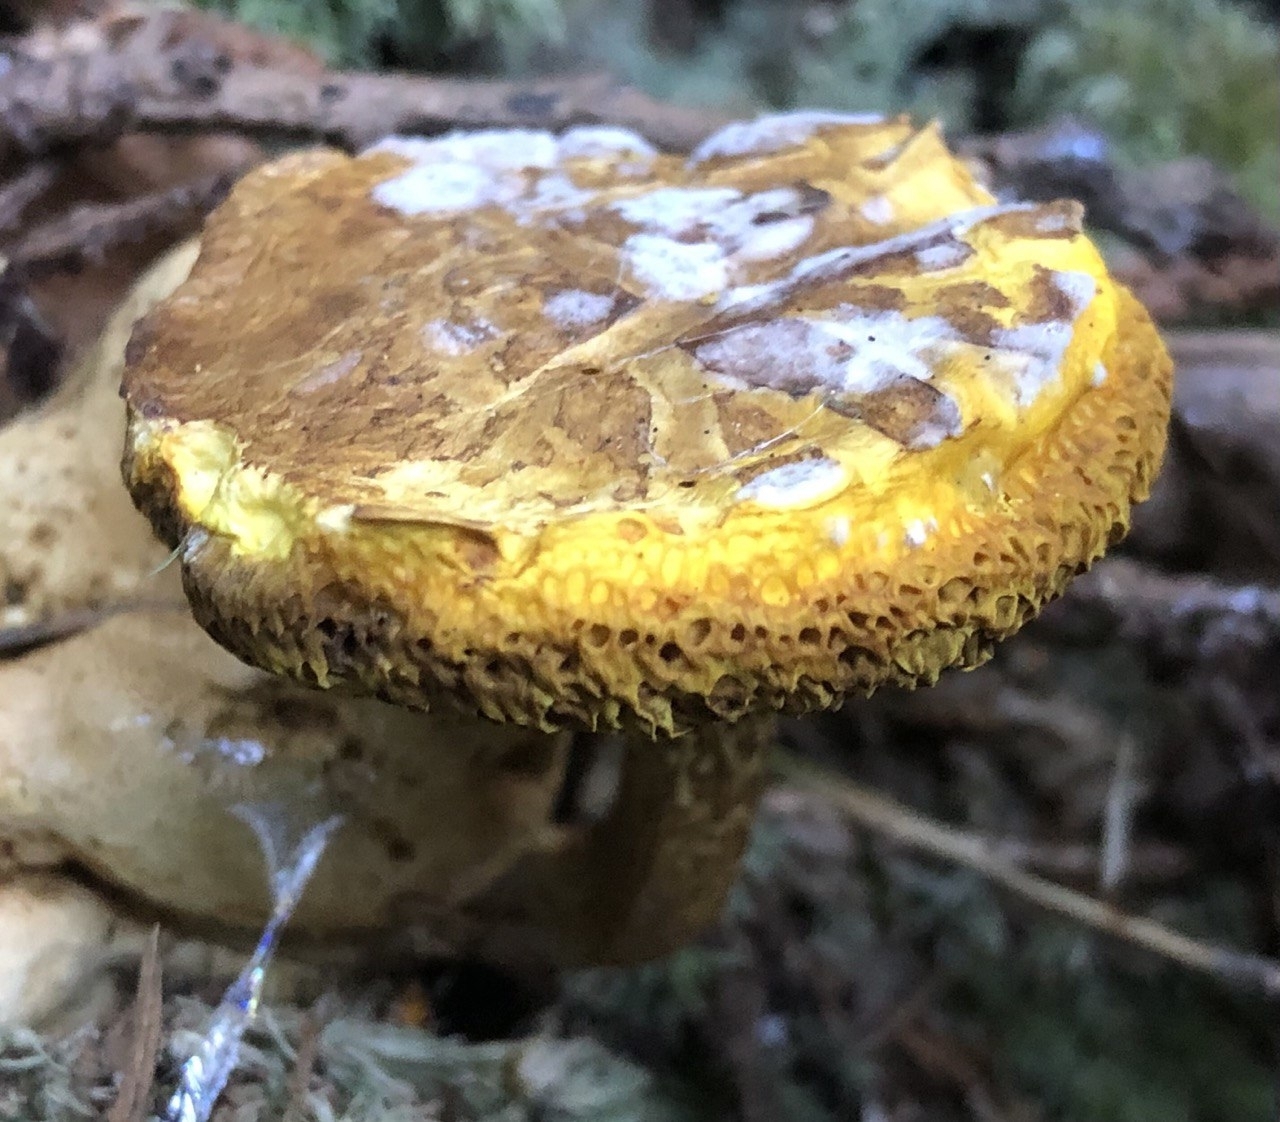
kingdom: Fungi
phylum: Basidiomycota
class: Agaricomycetes
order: Boletales
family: Boletaceae
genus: Pseudoboletus
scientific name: Pseudoboletus parasiticus
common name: Parasitic bolete
